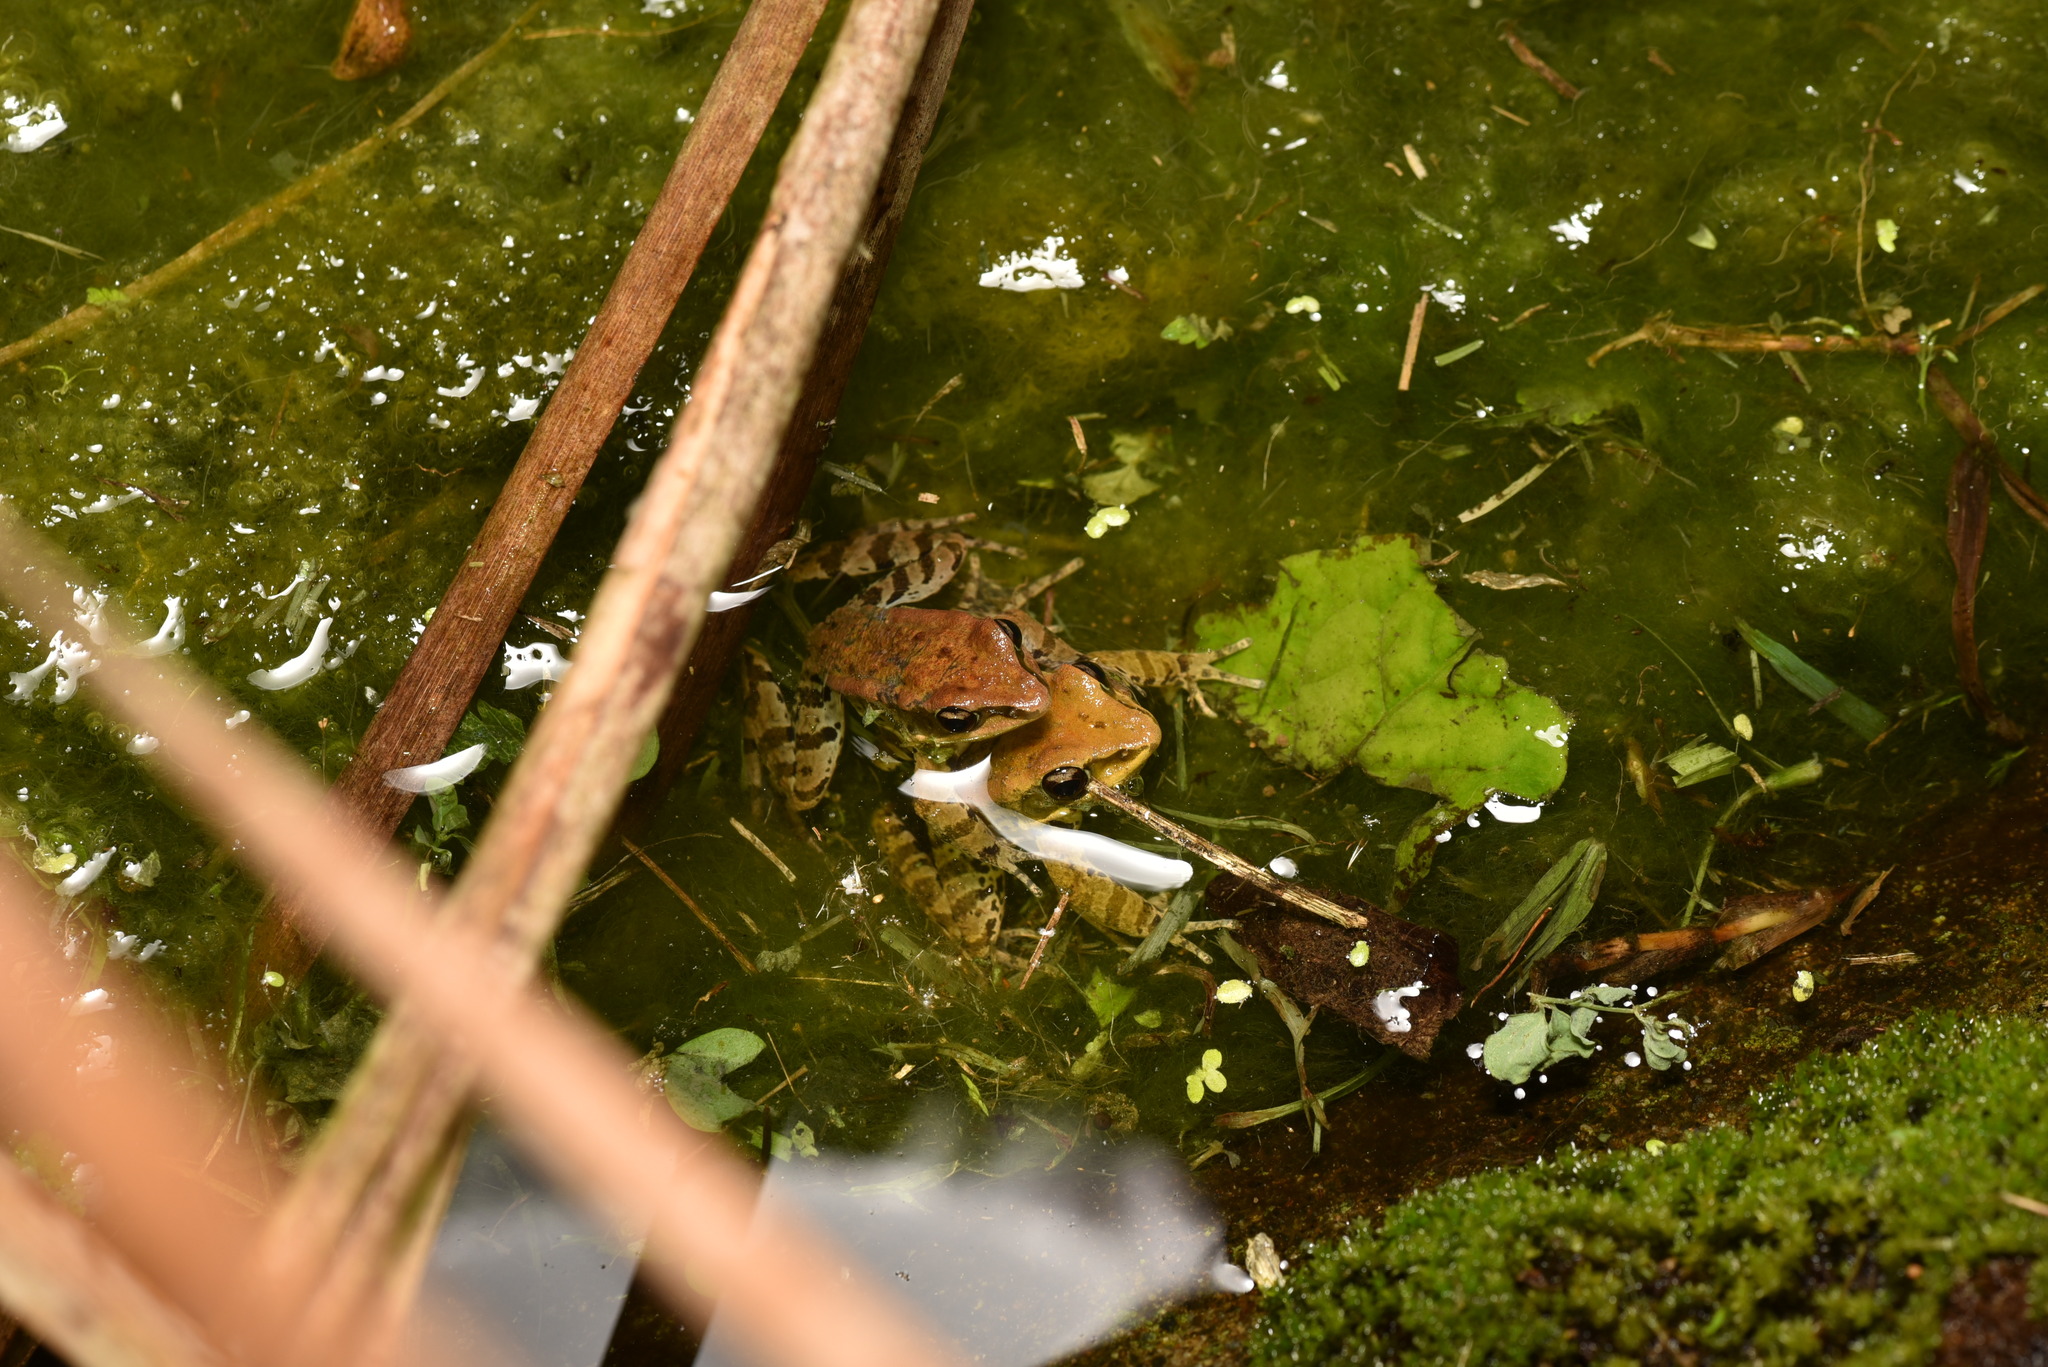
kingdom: Animalia
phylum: Chordata
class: Amphibia
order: Anura
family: Ranidae
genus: Hylarana
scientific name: Hylarana latouchii
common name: Broad-folded frog
